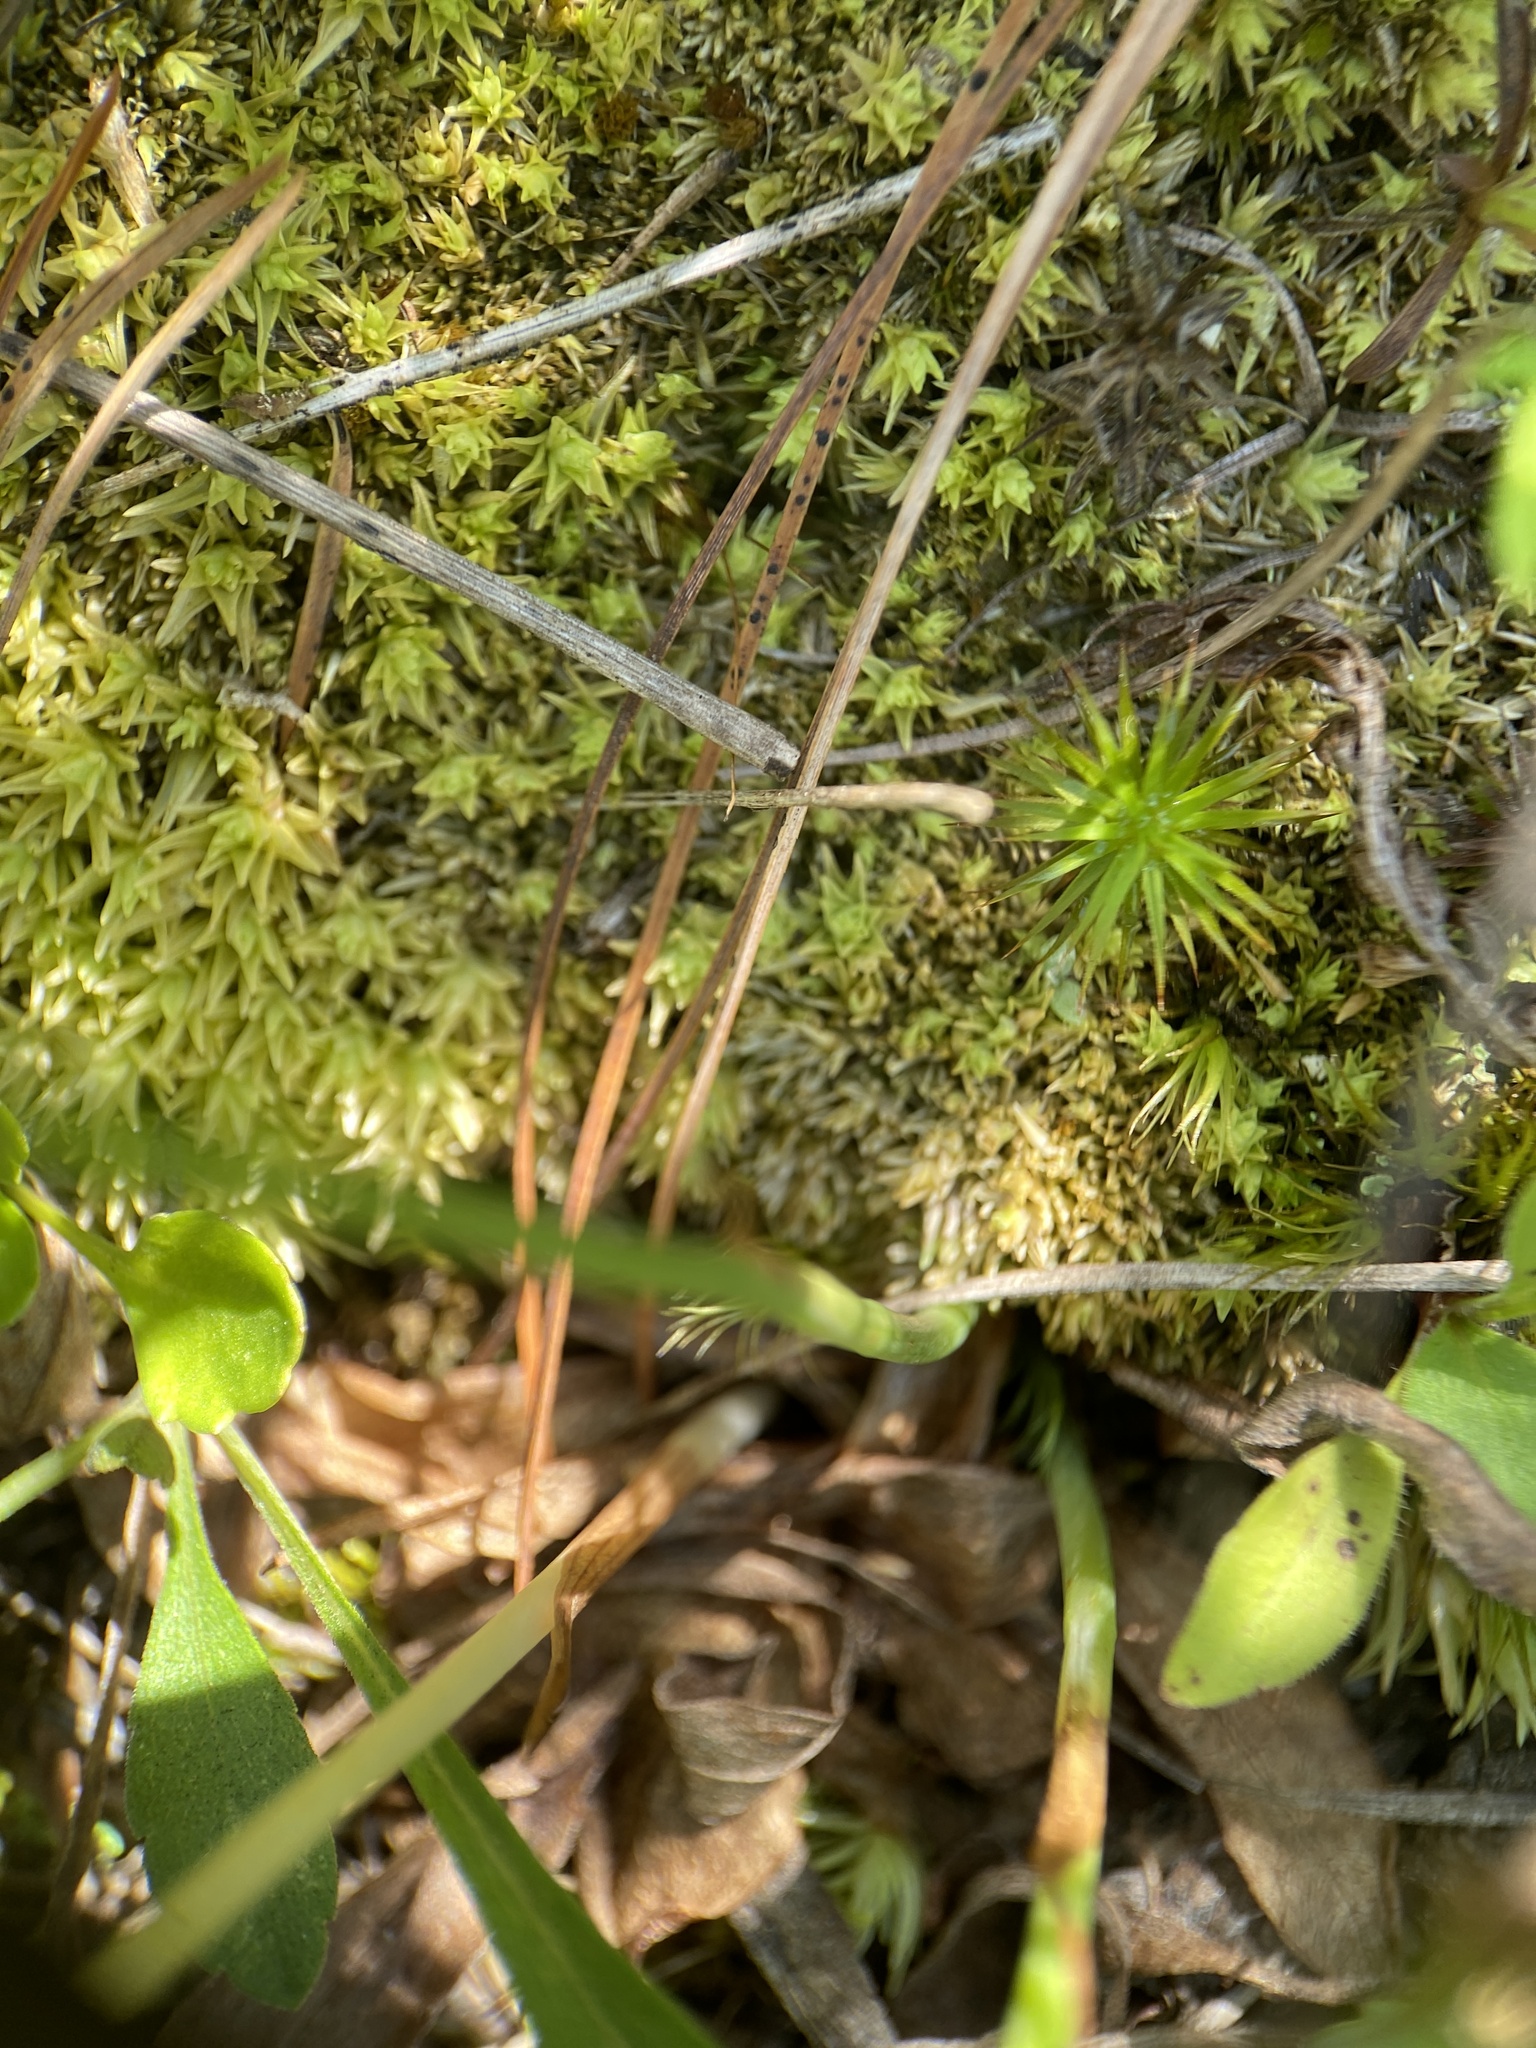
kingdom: Plantae
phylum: Tracheophyta
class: Liliopsida
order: Asparagales
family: Orchidaceae
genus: Spiranthes
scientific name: Spiranthes lacera
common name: Northern slender ladies'-tresses
